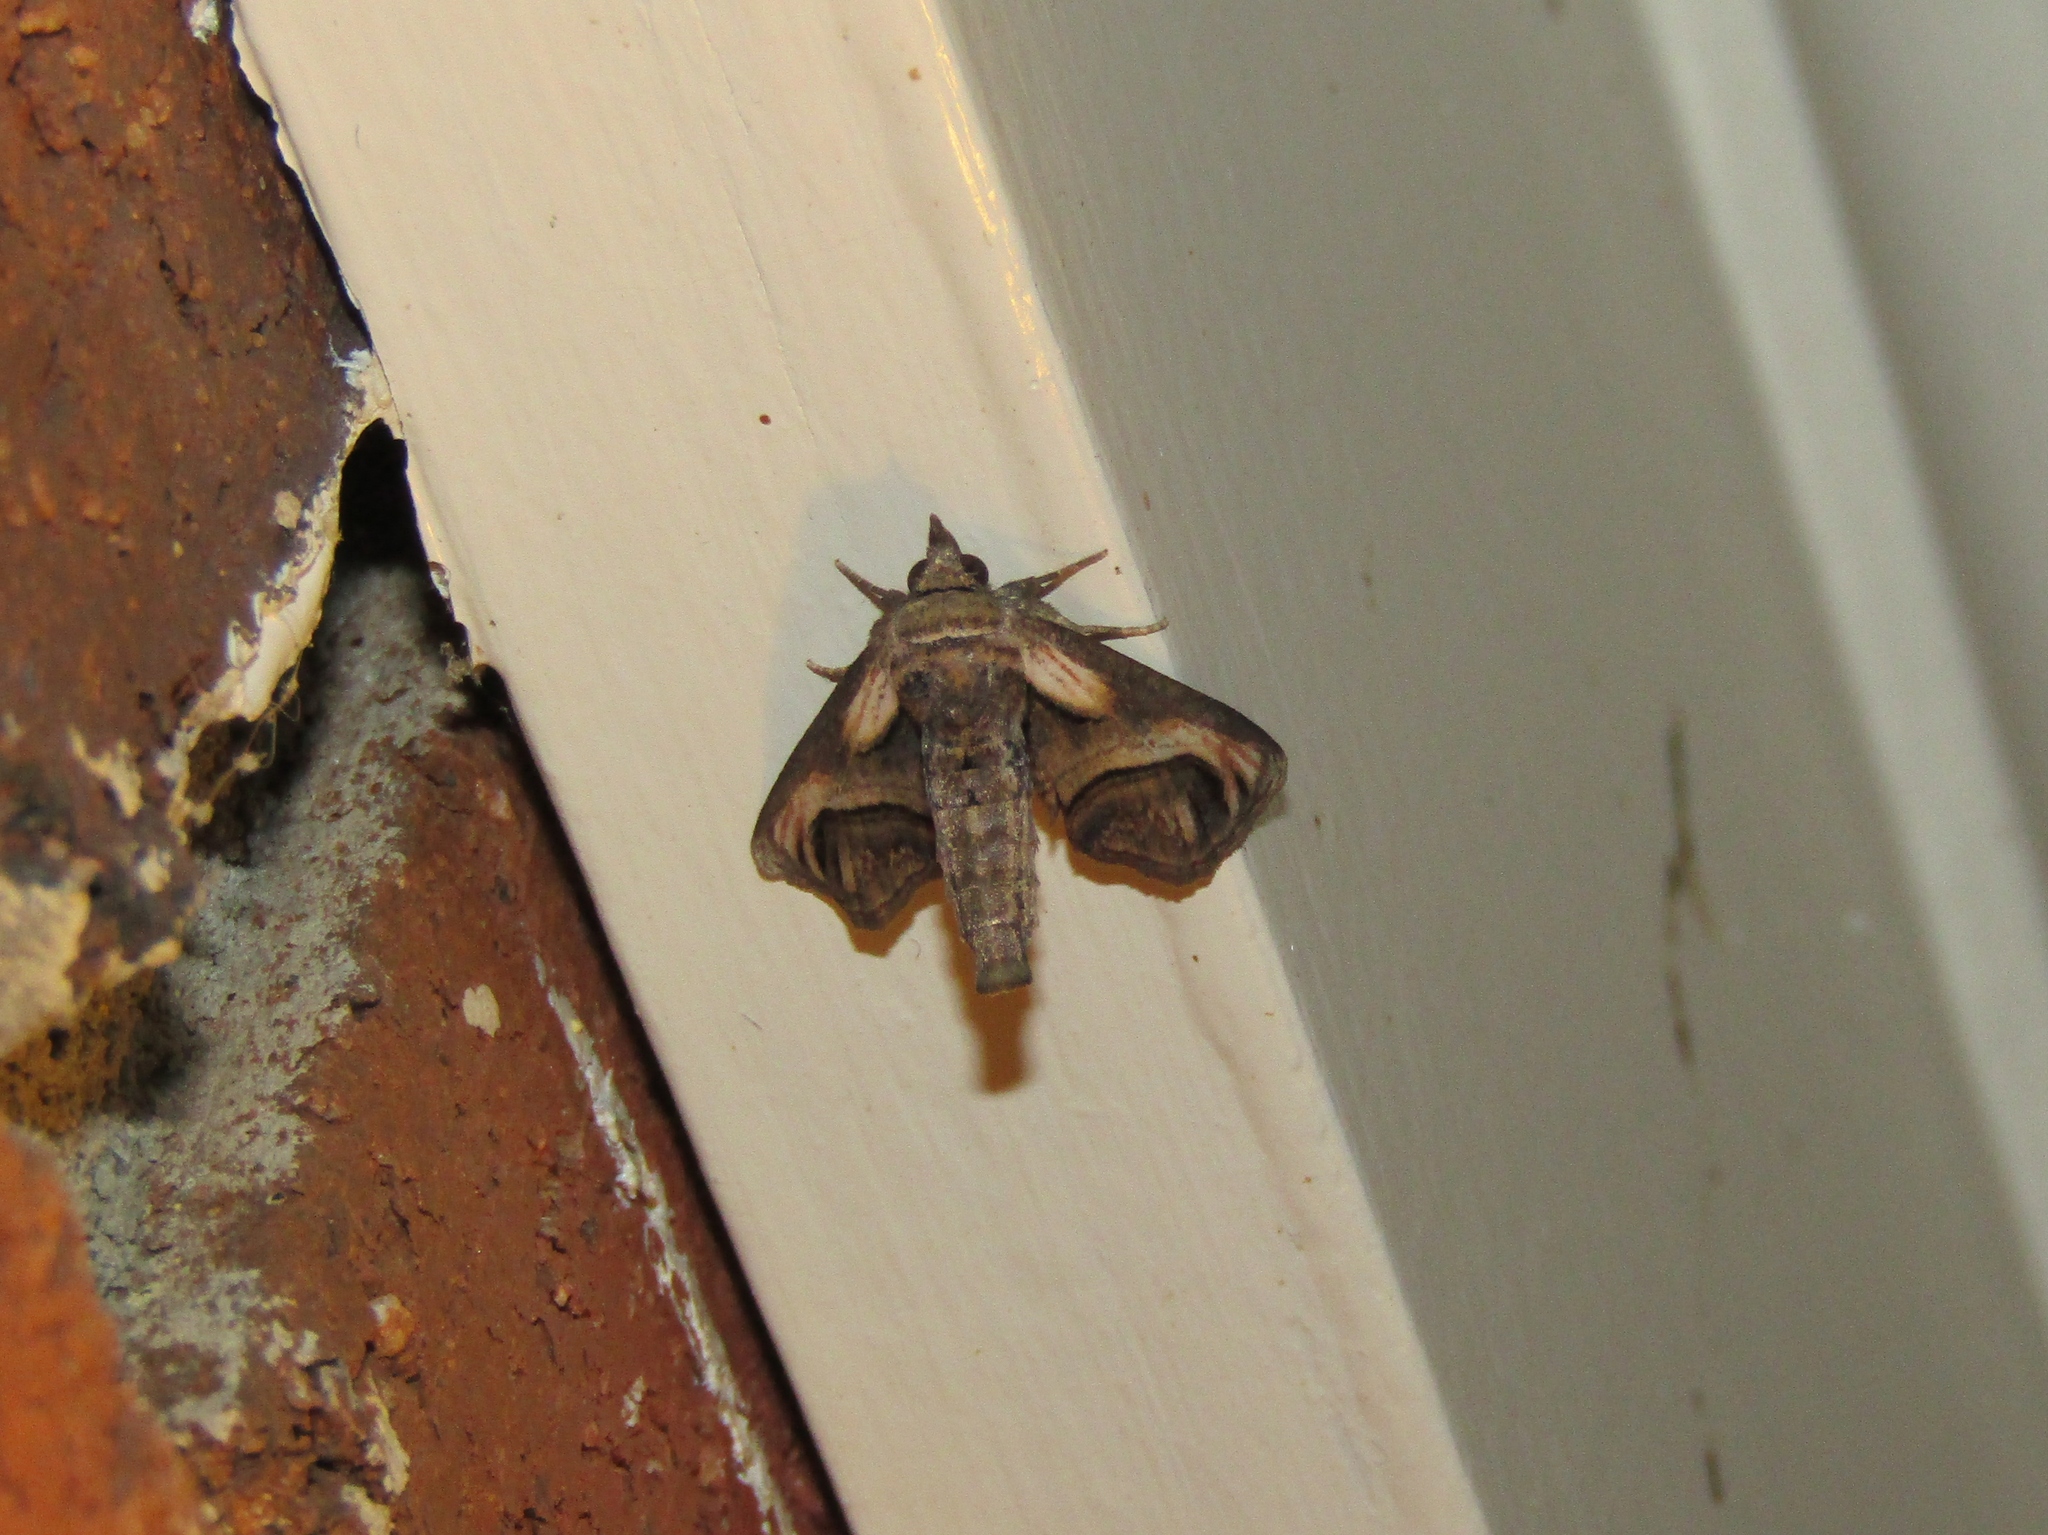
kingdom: Animalia
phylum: Arthropoda
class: Insecta
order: Lepidoptera
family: Euteliidae
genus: Paectes
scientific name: Paectes oculatrix
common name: Eyed paectes moth
